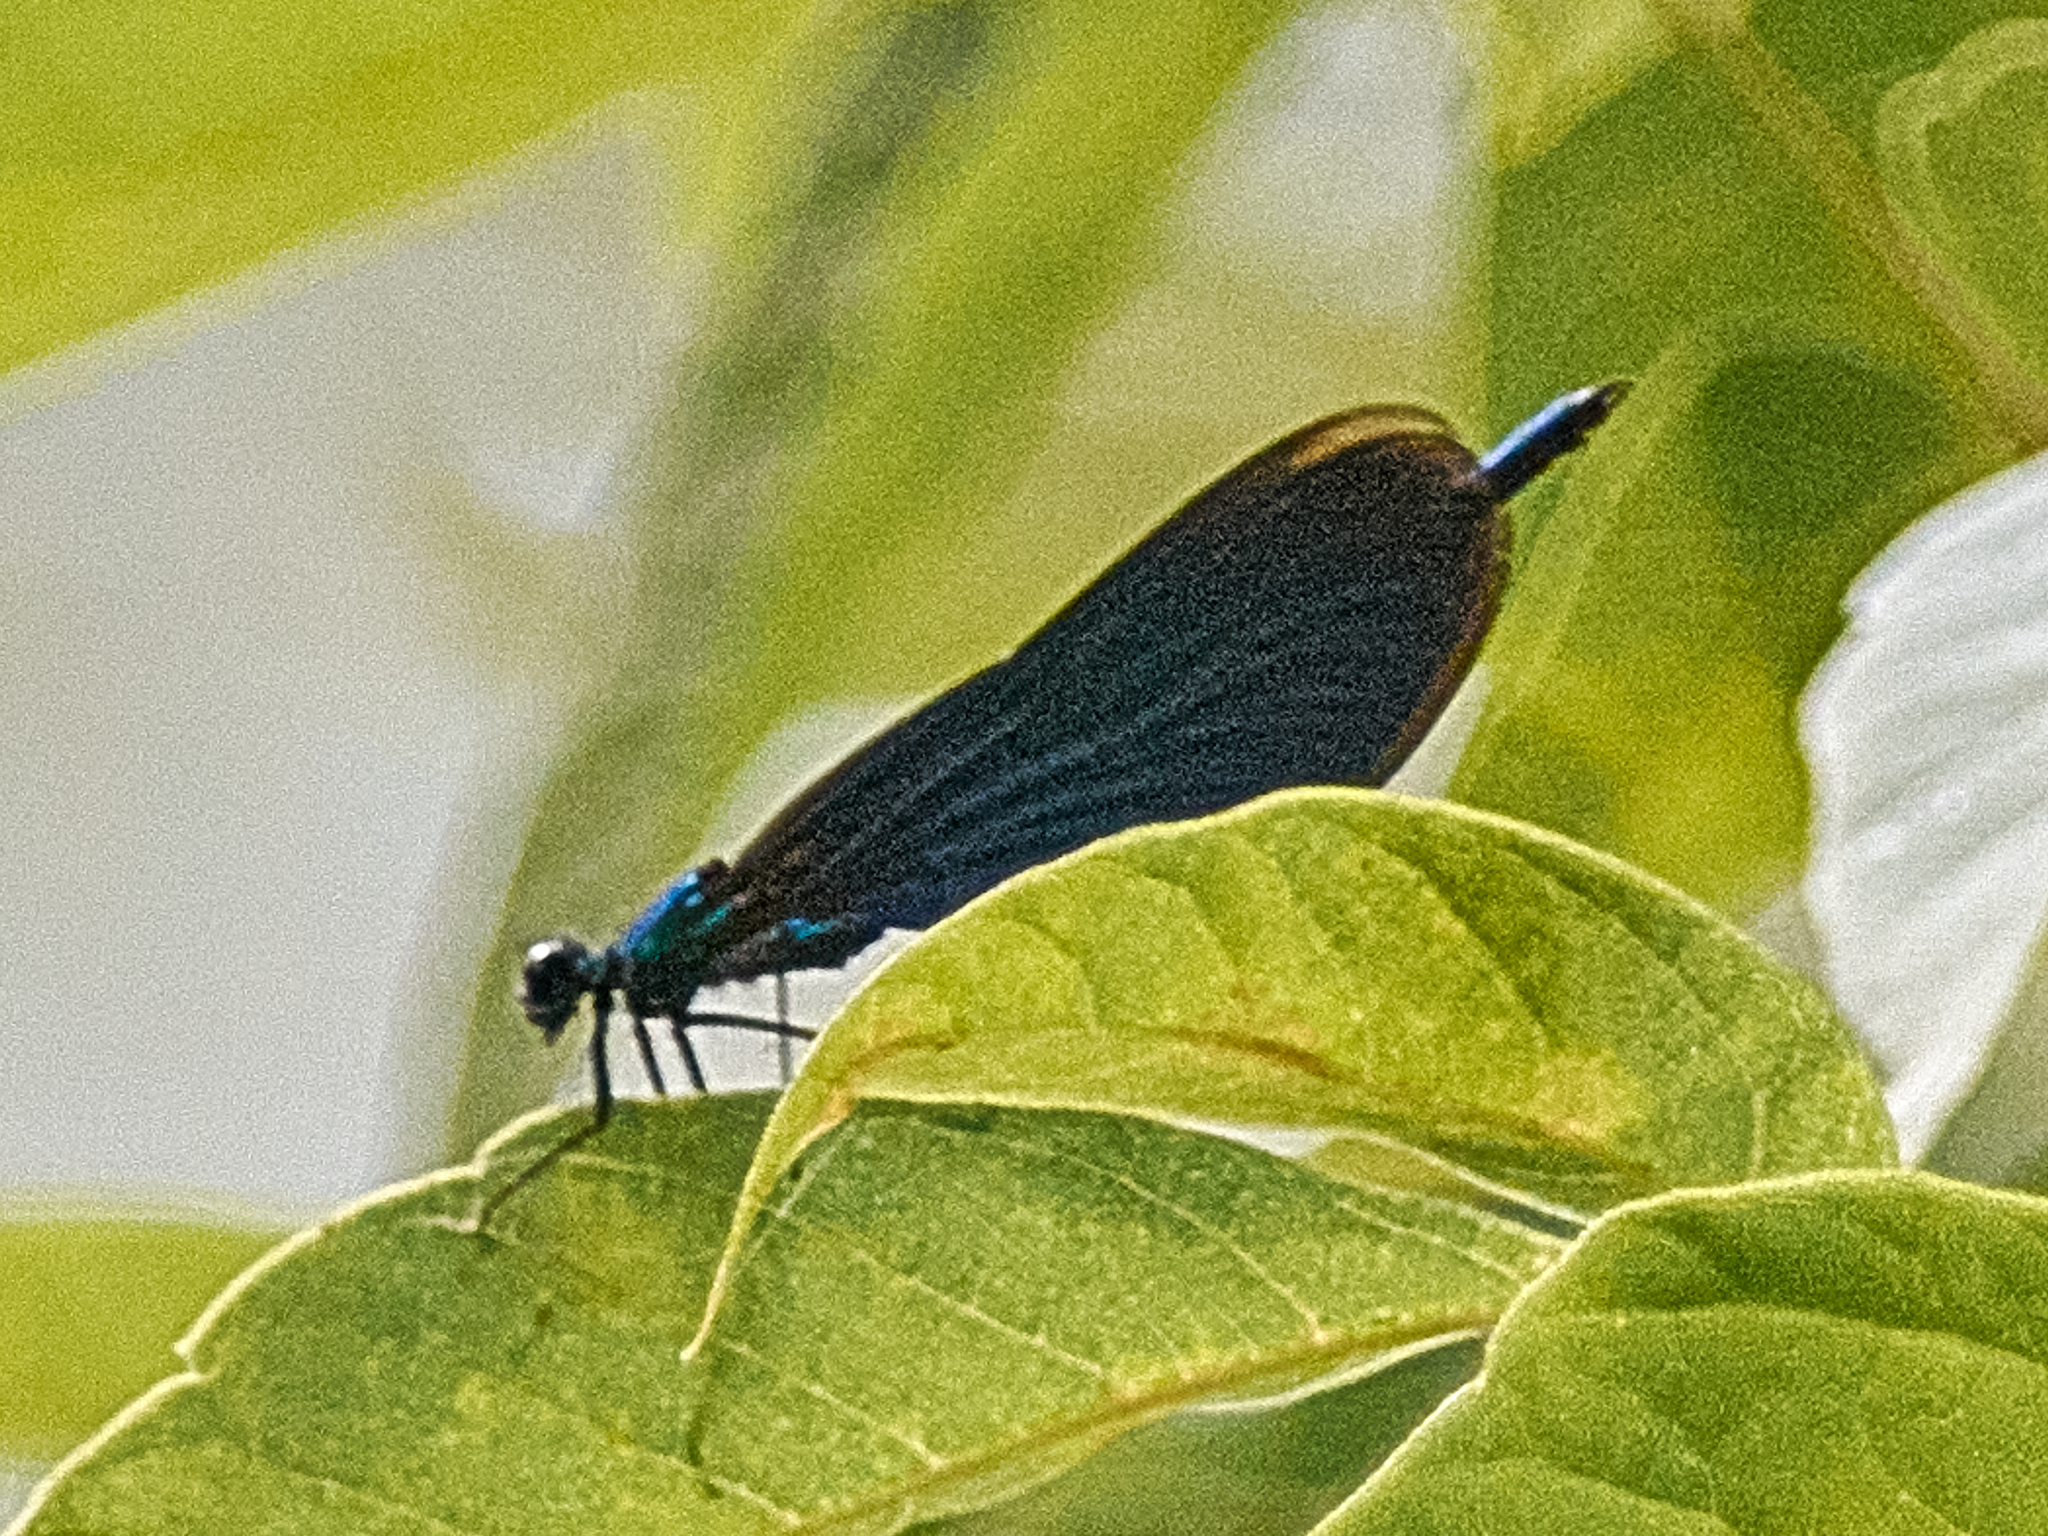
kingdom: Animalia
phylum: Arthropoda
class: Insecta
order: Odonata
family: Calopterygidae
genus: Calopteryx
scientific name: Calopteryx virgo
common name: Beautiful demoiselle
